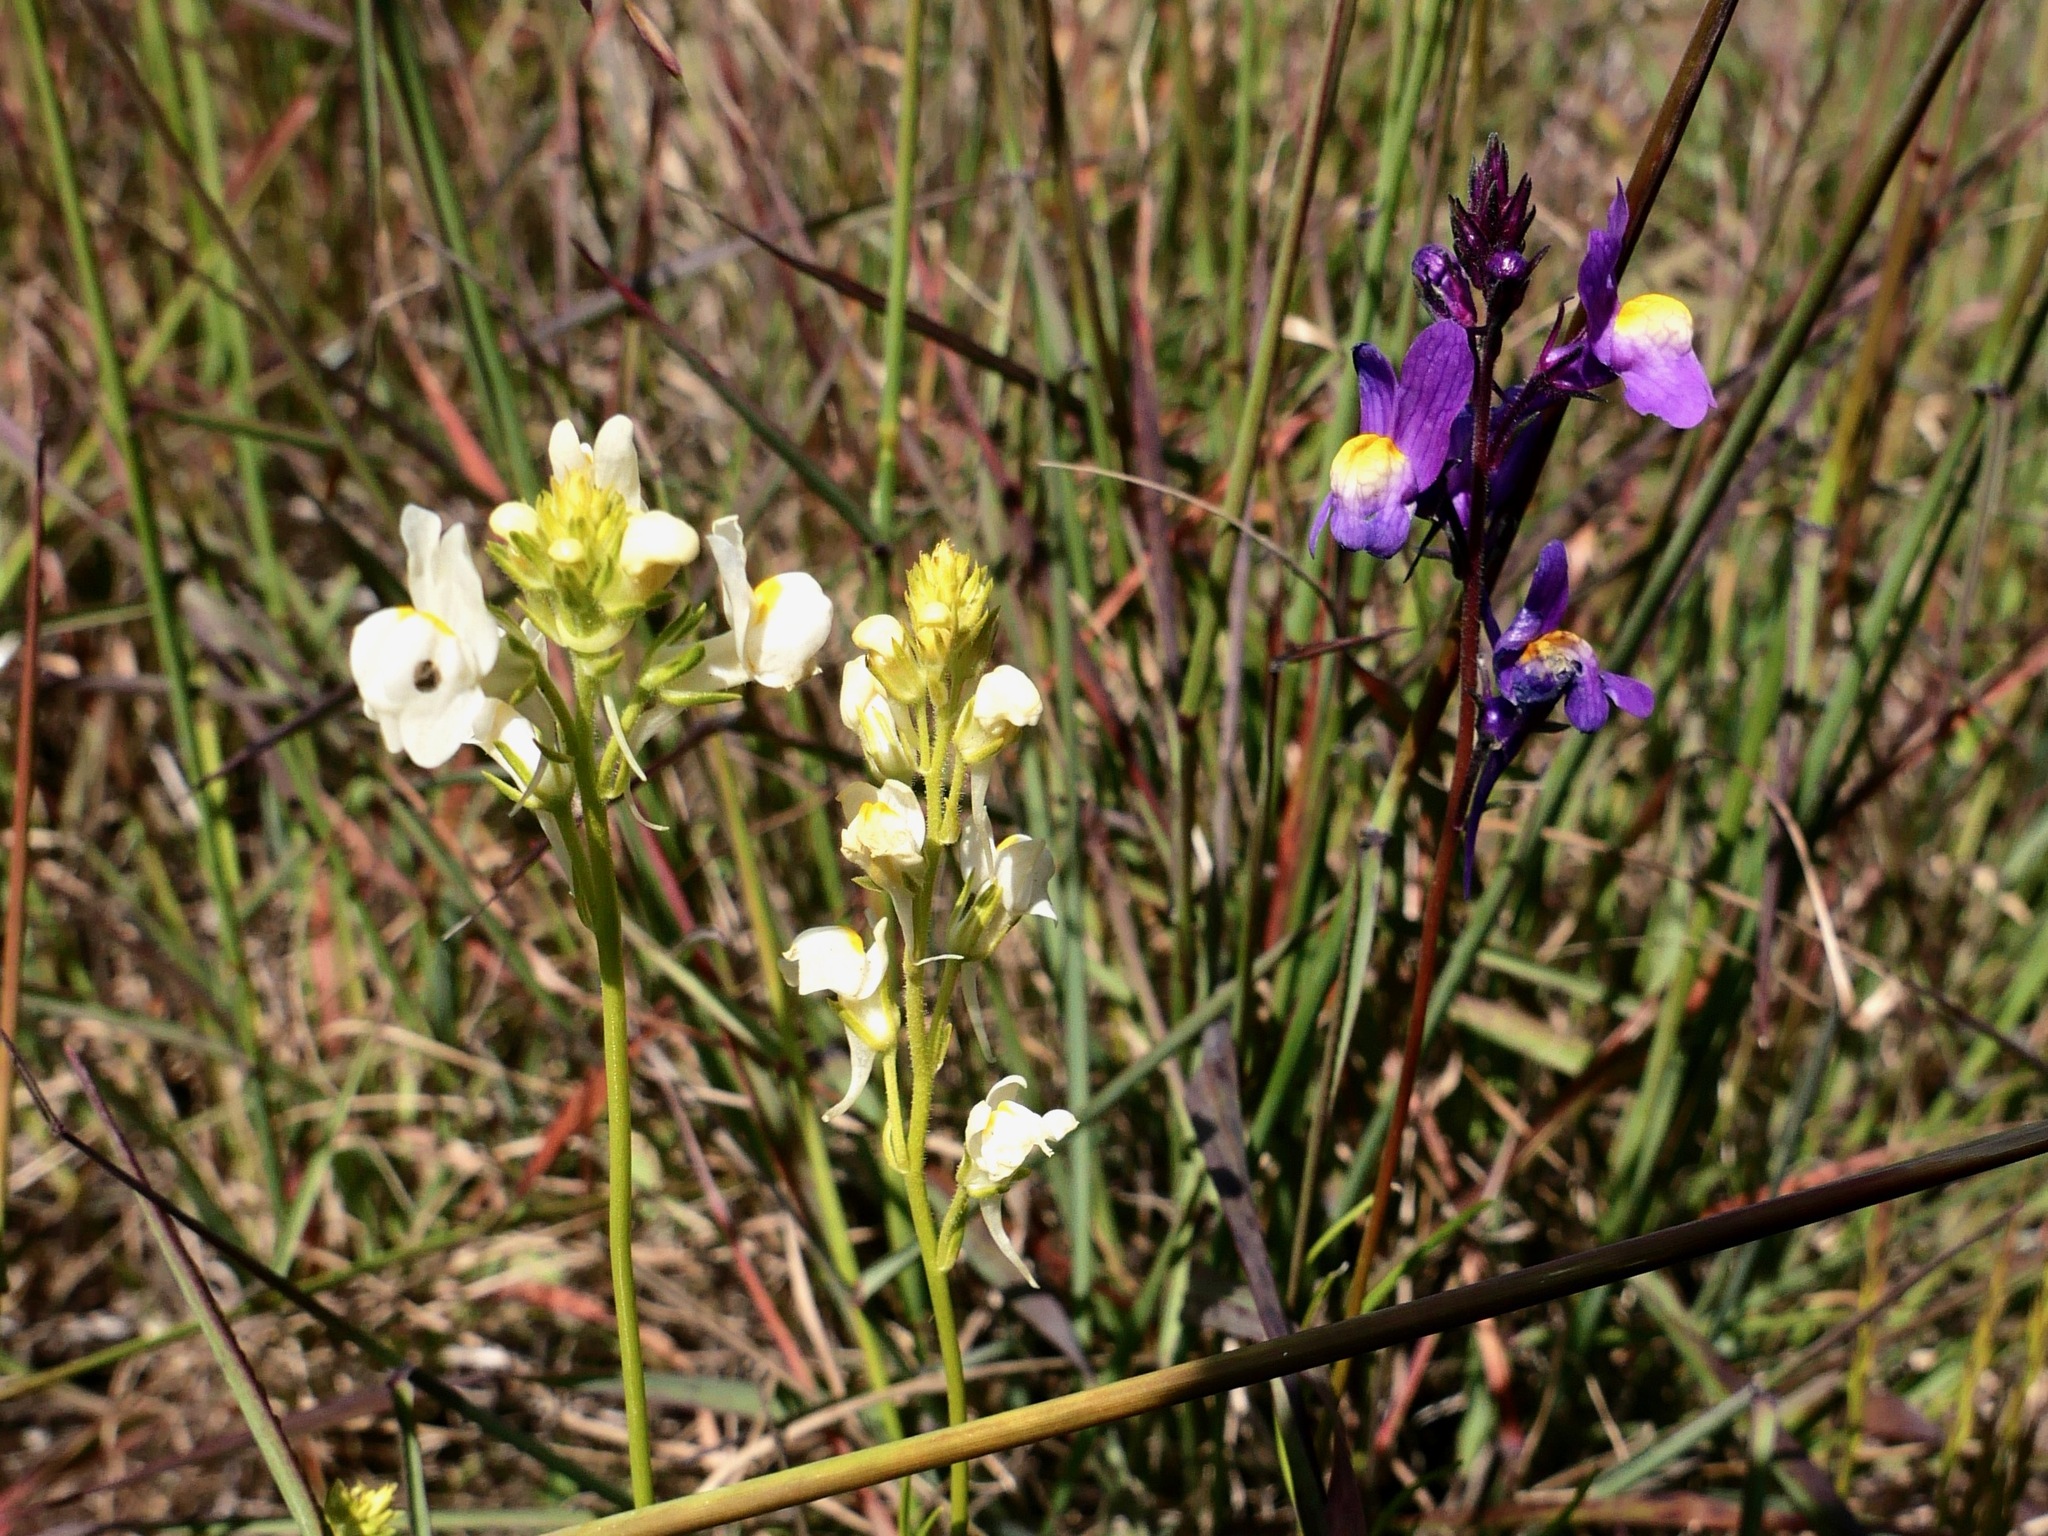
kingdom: Plantae
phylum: Tracheophyta
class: Magnoliopsida
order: Lamiales
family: Plantaginaceae
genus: Linaria
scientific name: Linaria maroccana
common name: Moroccan toadflax
